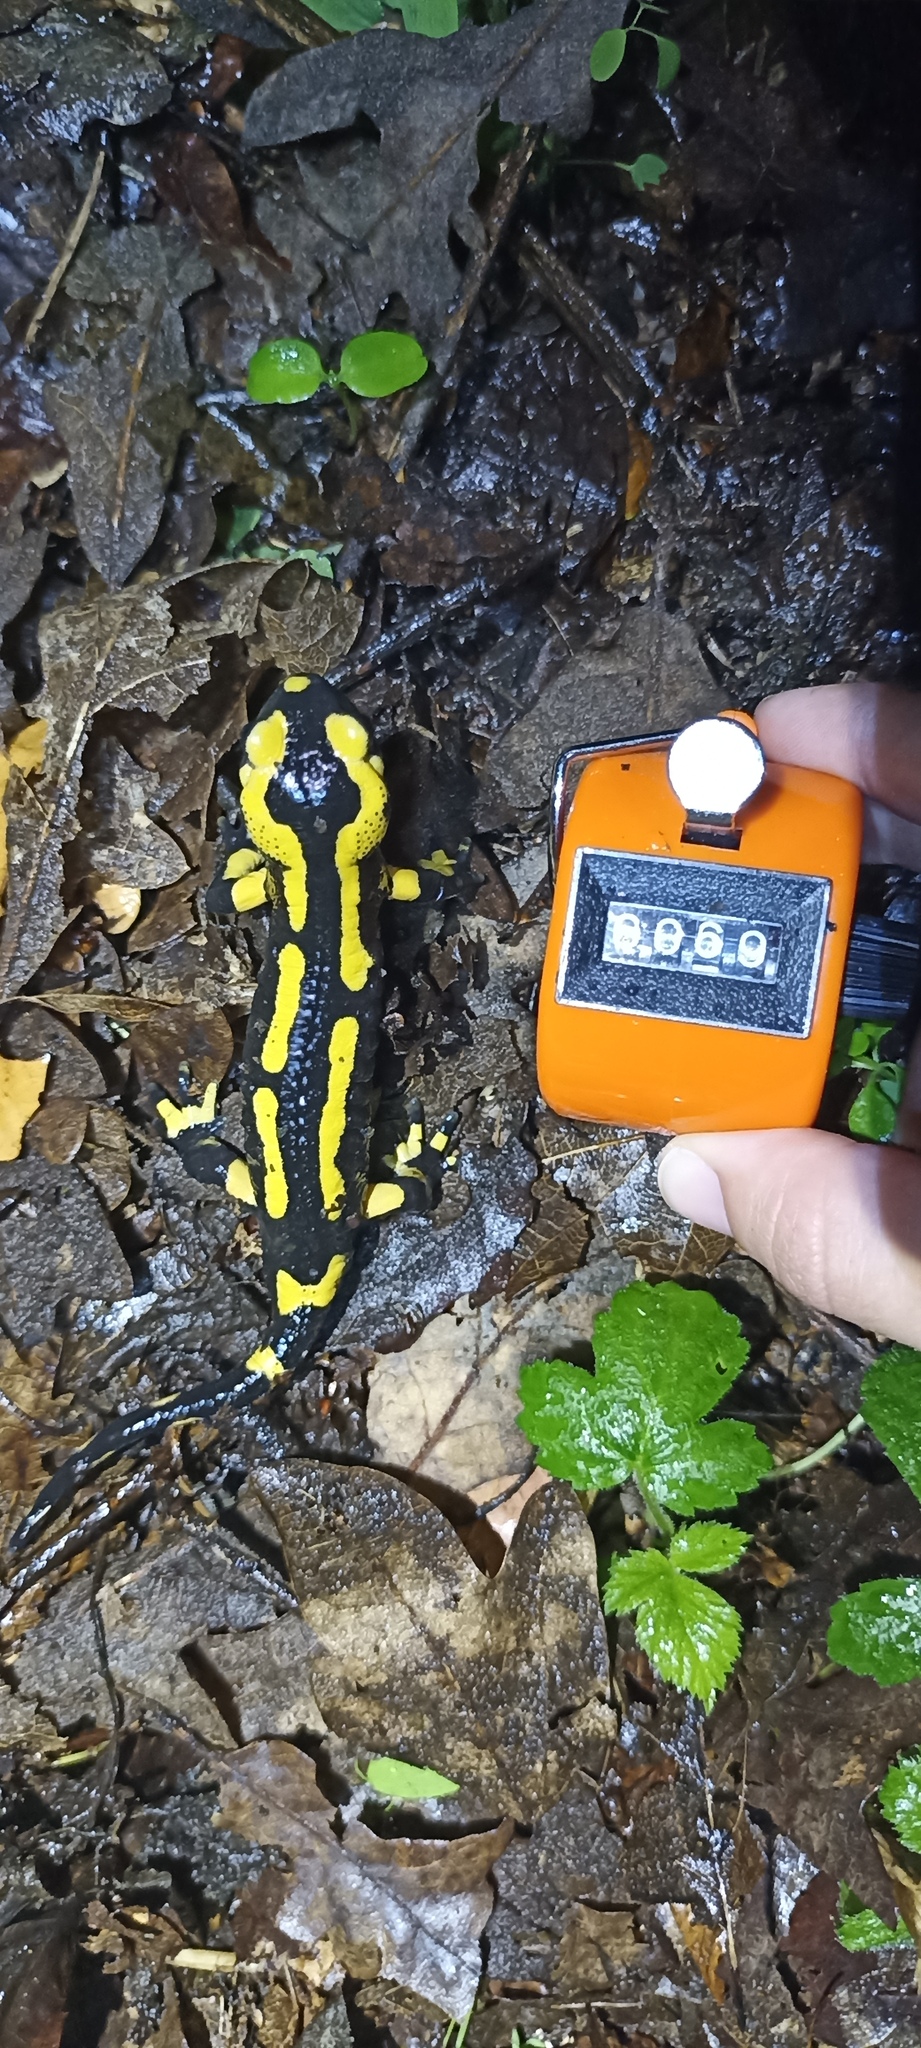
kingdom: Animalia
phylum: Chordata
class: Amphibia
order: Caudata
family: Salamandridae
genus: Salamandra
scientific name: Salamandra salamandra
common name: Fire salamander
